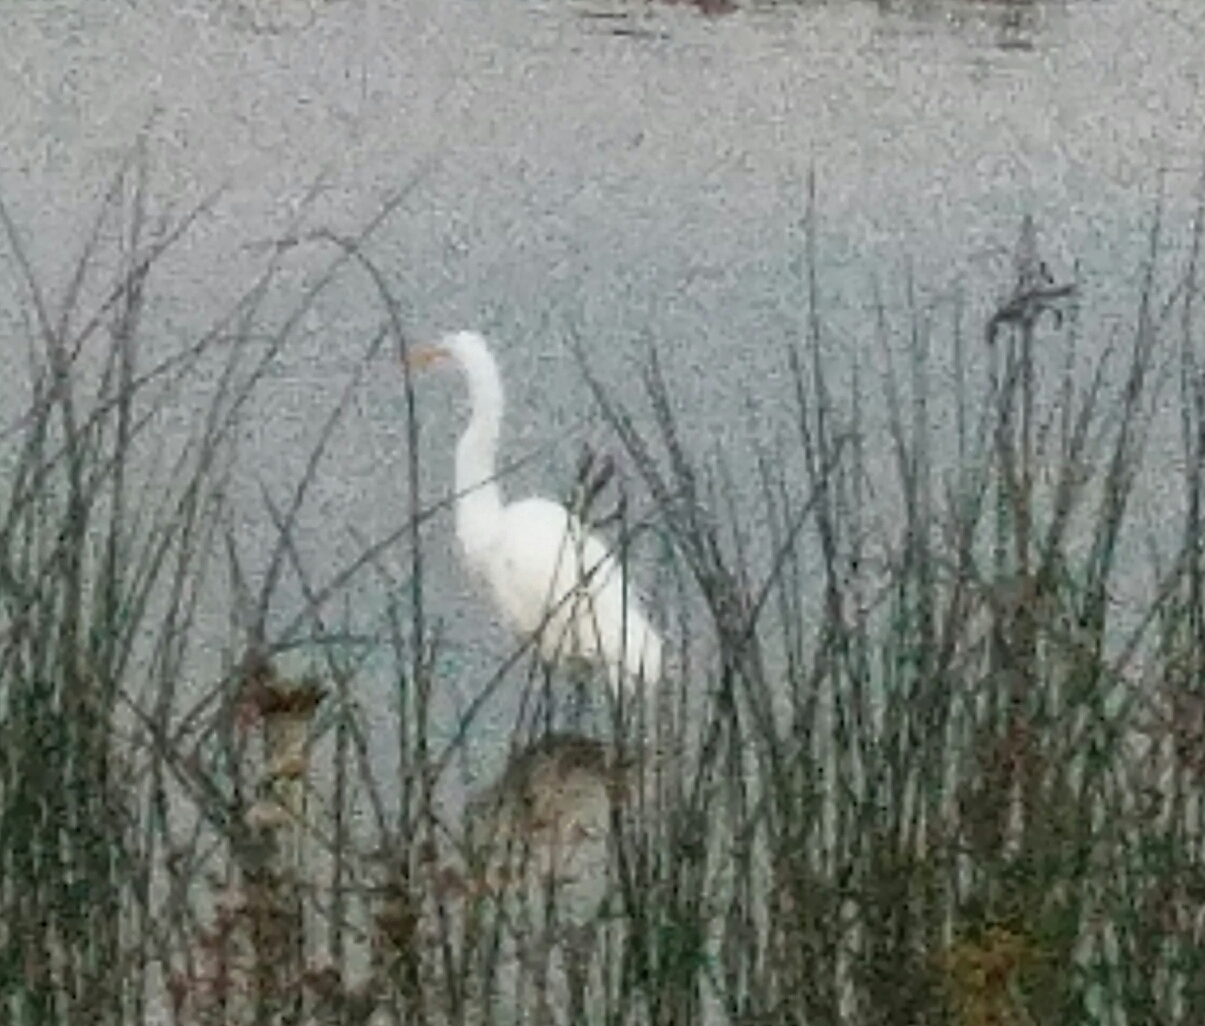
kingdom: Animalia
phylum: Chordata
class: Aves
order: Pelecaniformes
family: Ardeidae
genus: Ardea
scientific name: Ardea alba
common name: Great egret
